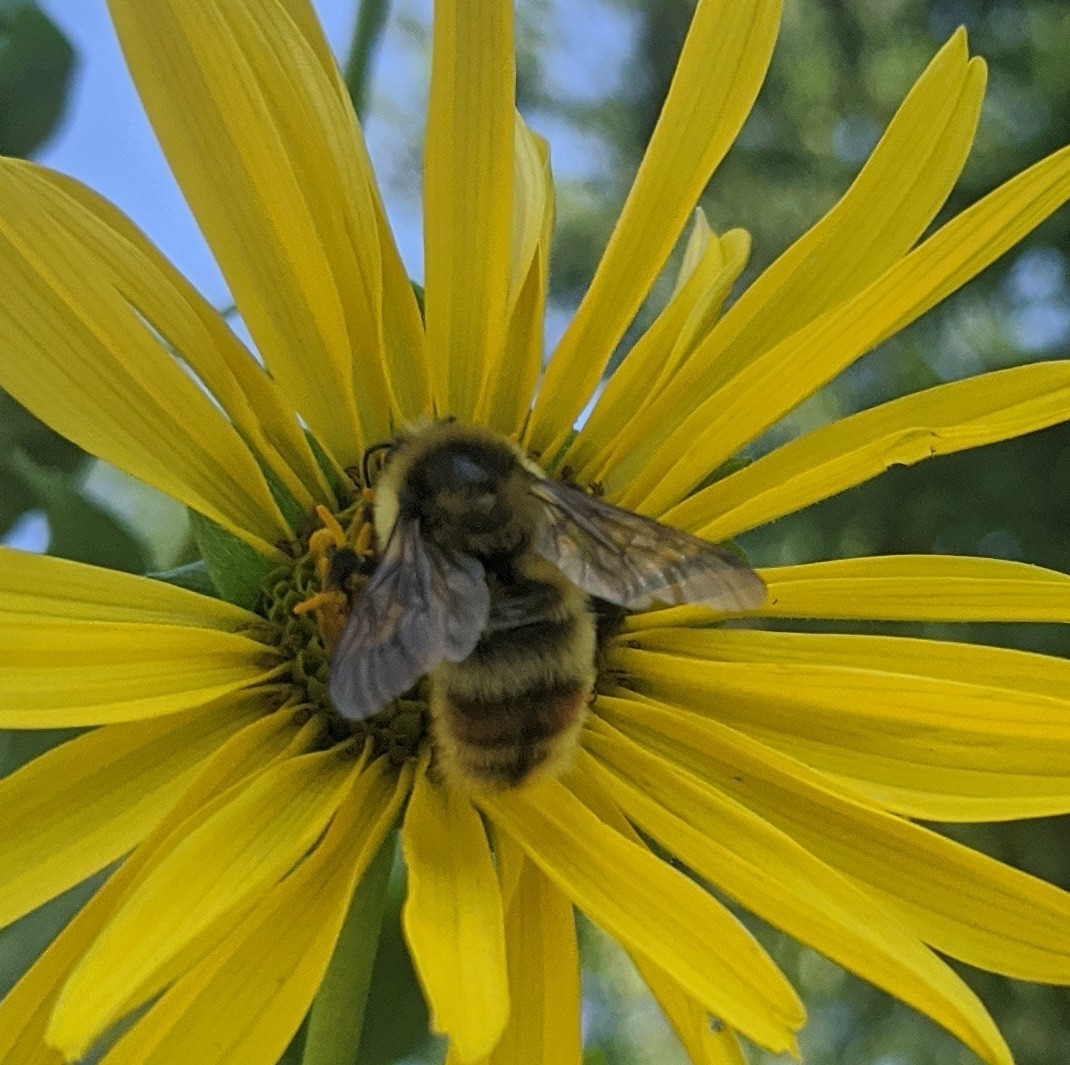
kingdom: Animalia
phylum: Arthropoda
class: Insecta
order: Hymenoptera
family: Apidae
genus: Bombus
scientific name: Bombus rufocinctus
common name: Red-belted bumble bee
